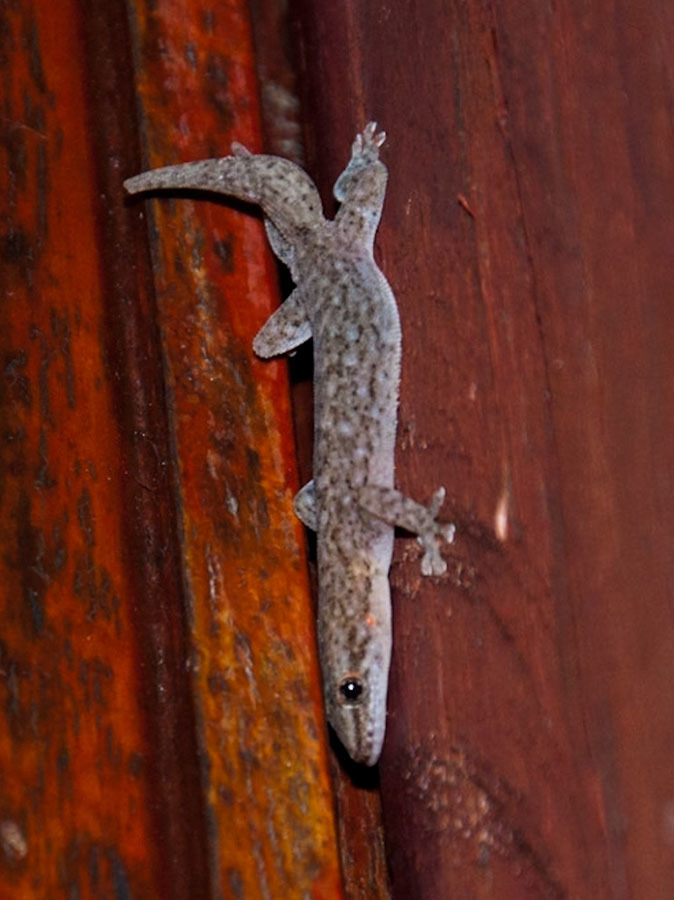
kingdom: Animalia
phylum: Chordata
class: Squamata
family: Gekkonidae
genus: Afrogecko
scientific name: Afrogecko porphyreus
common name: Marbled leaf-toed gecko
